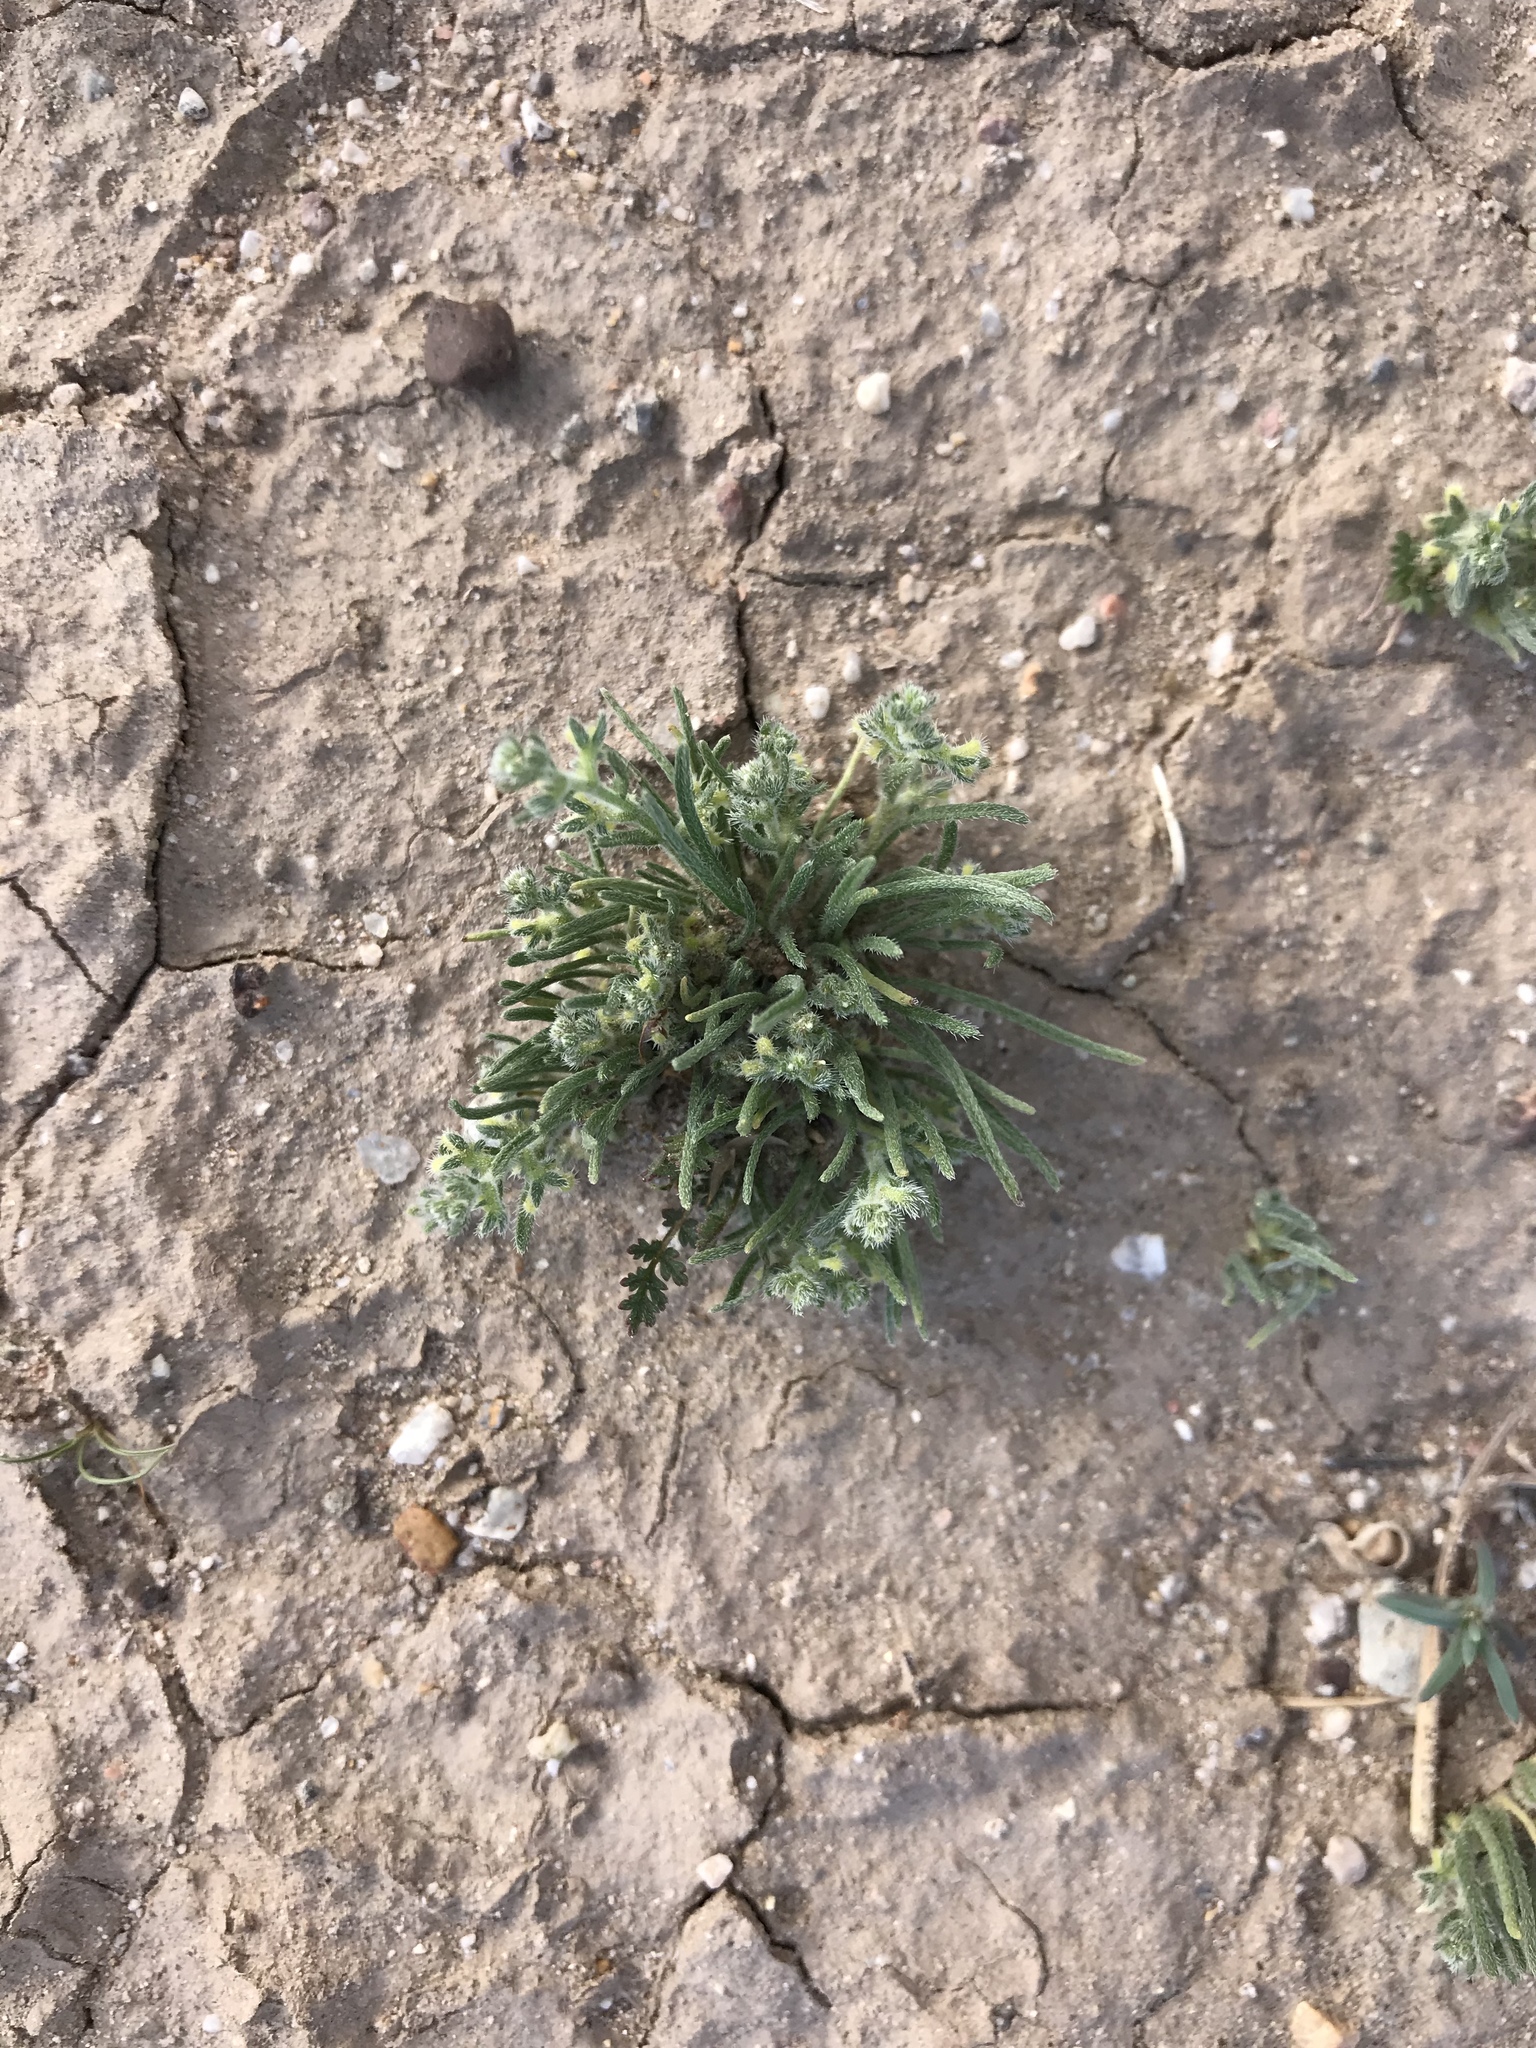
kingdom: Plantae
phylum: Tracheophyta
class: Magnoliopsida
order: Boraginales
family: Boraginaceae
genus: Pectocarya
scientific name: Pectocarya heterocarpa
